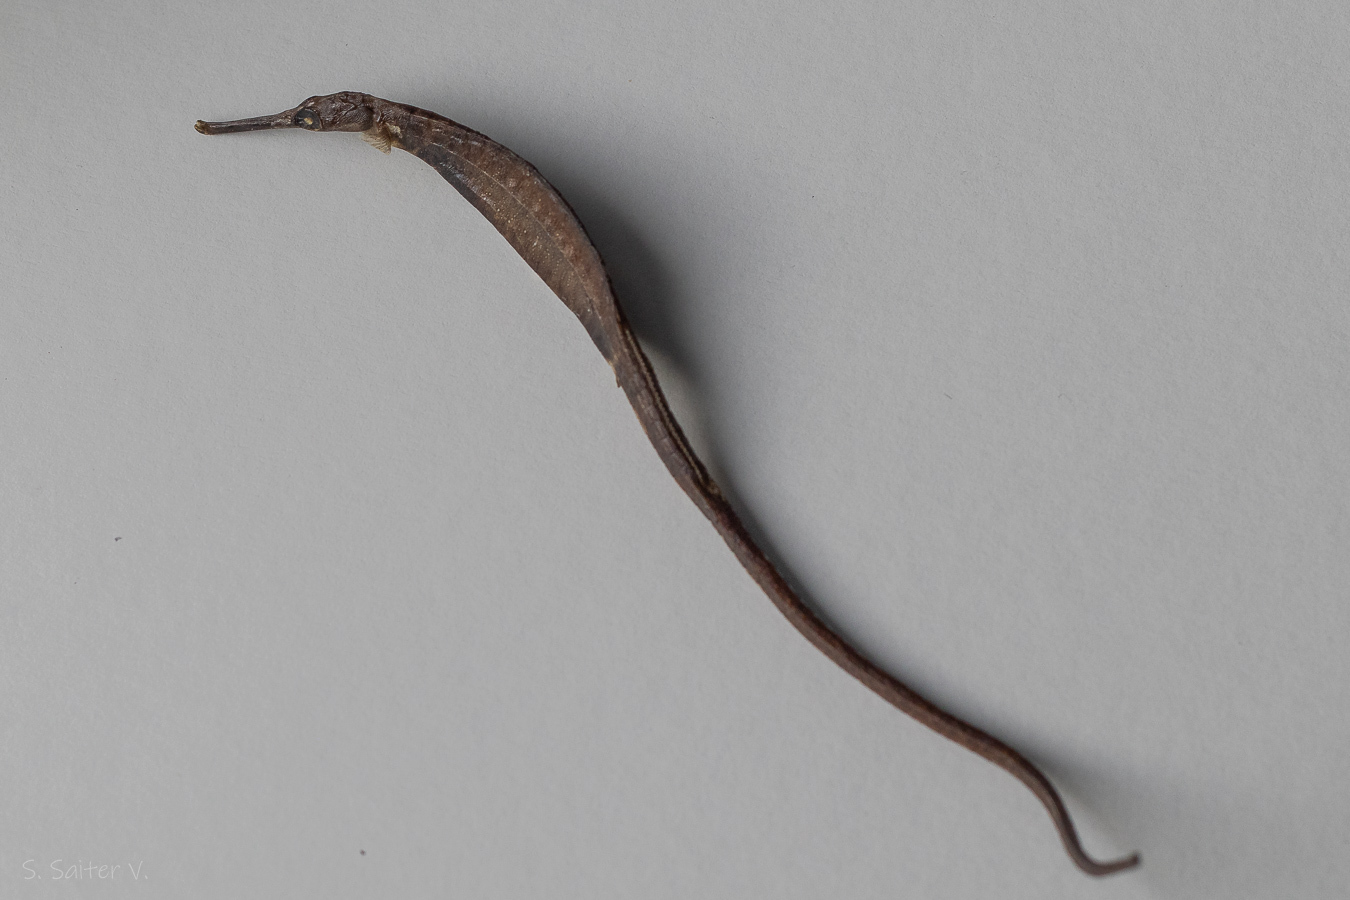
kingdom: Animalia
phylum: Chordata
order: Syngnathiformes
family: Syngnathidae
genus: Leptonotus
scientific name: Leptonotus blainvilleanus
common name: Deep-bodied pipefish
